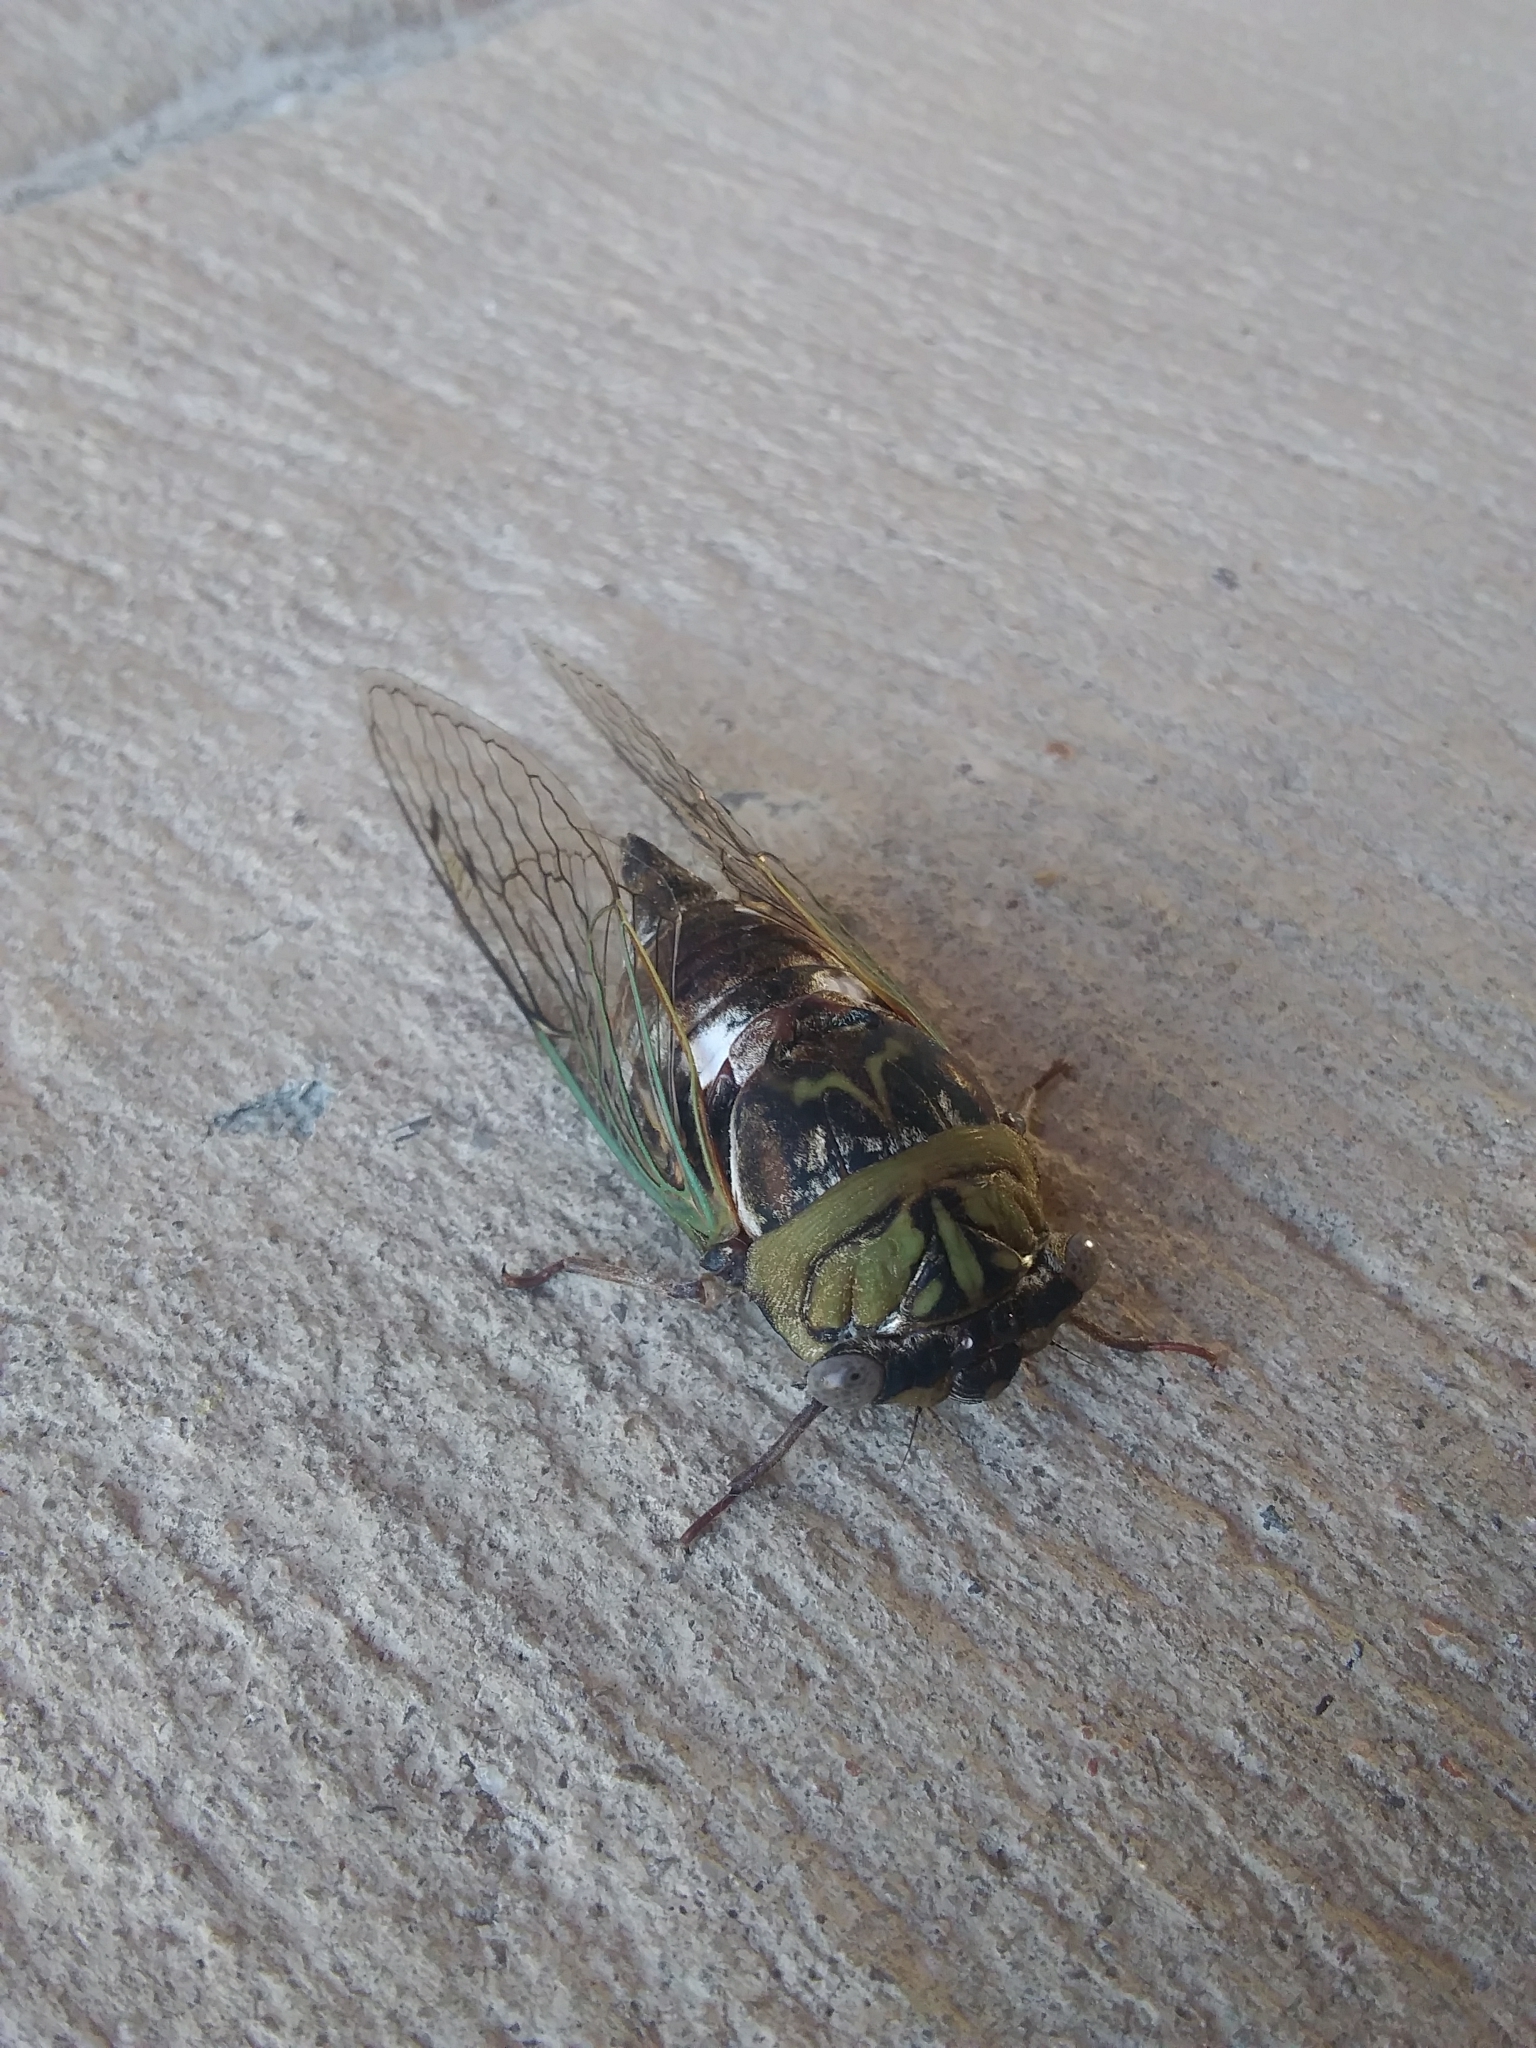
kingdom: Animalia
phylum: Arthropoda
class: Insecta
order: Hemiptera
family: Cicadidae
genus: Megatibicen
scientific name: Megatibicen resh
